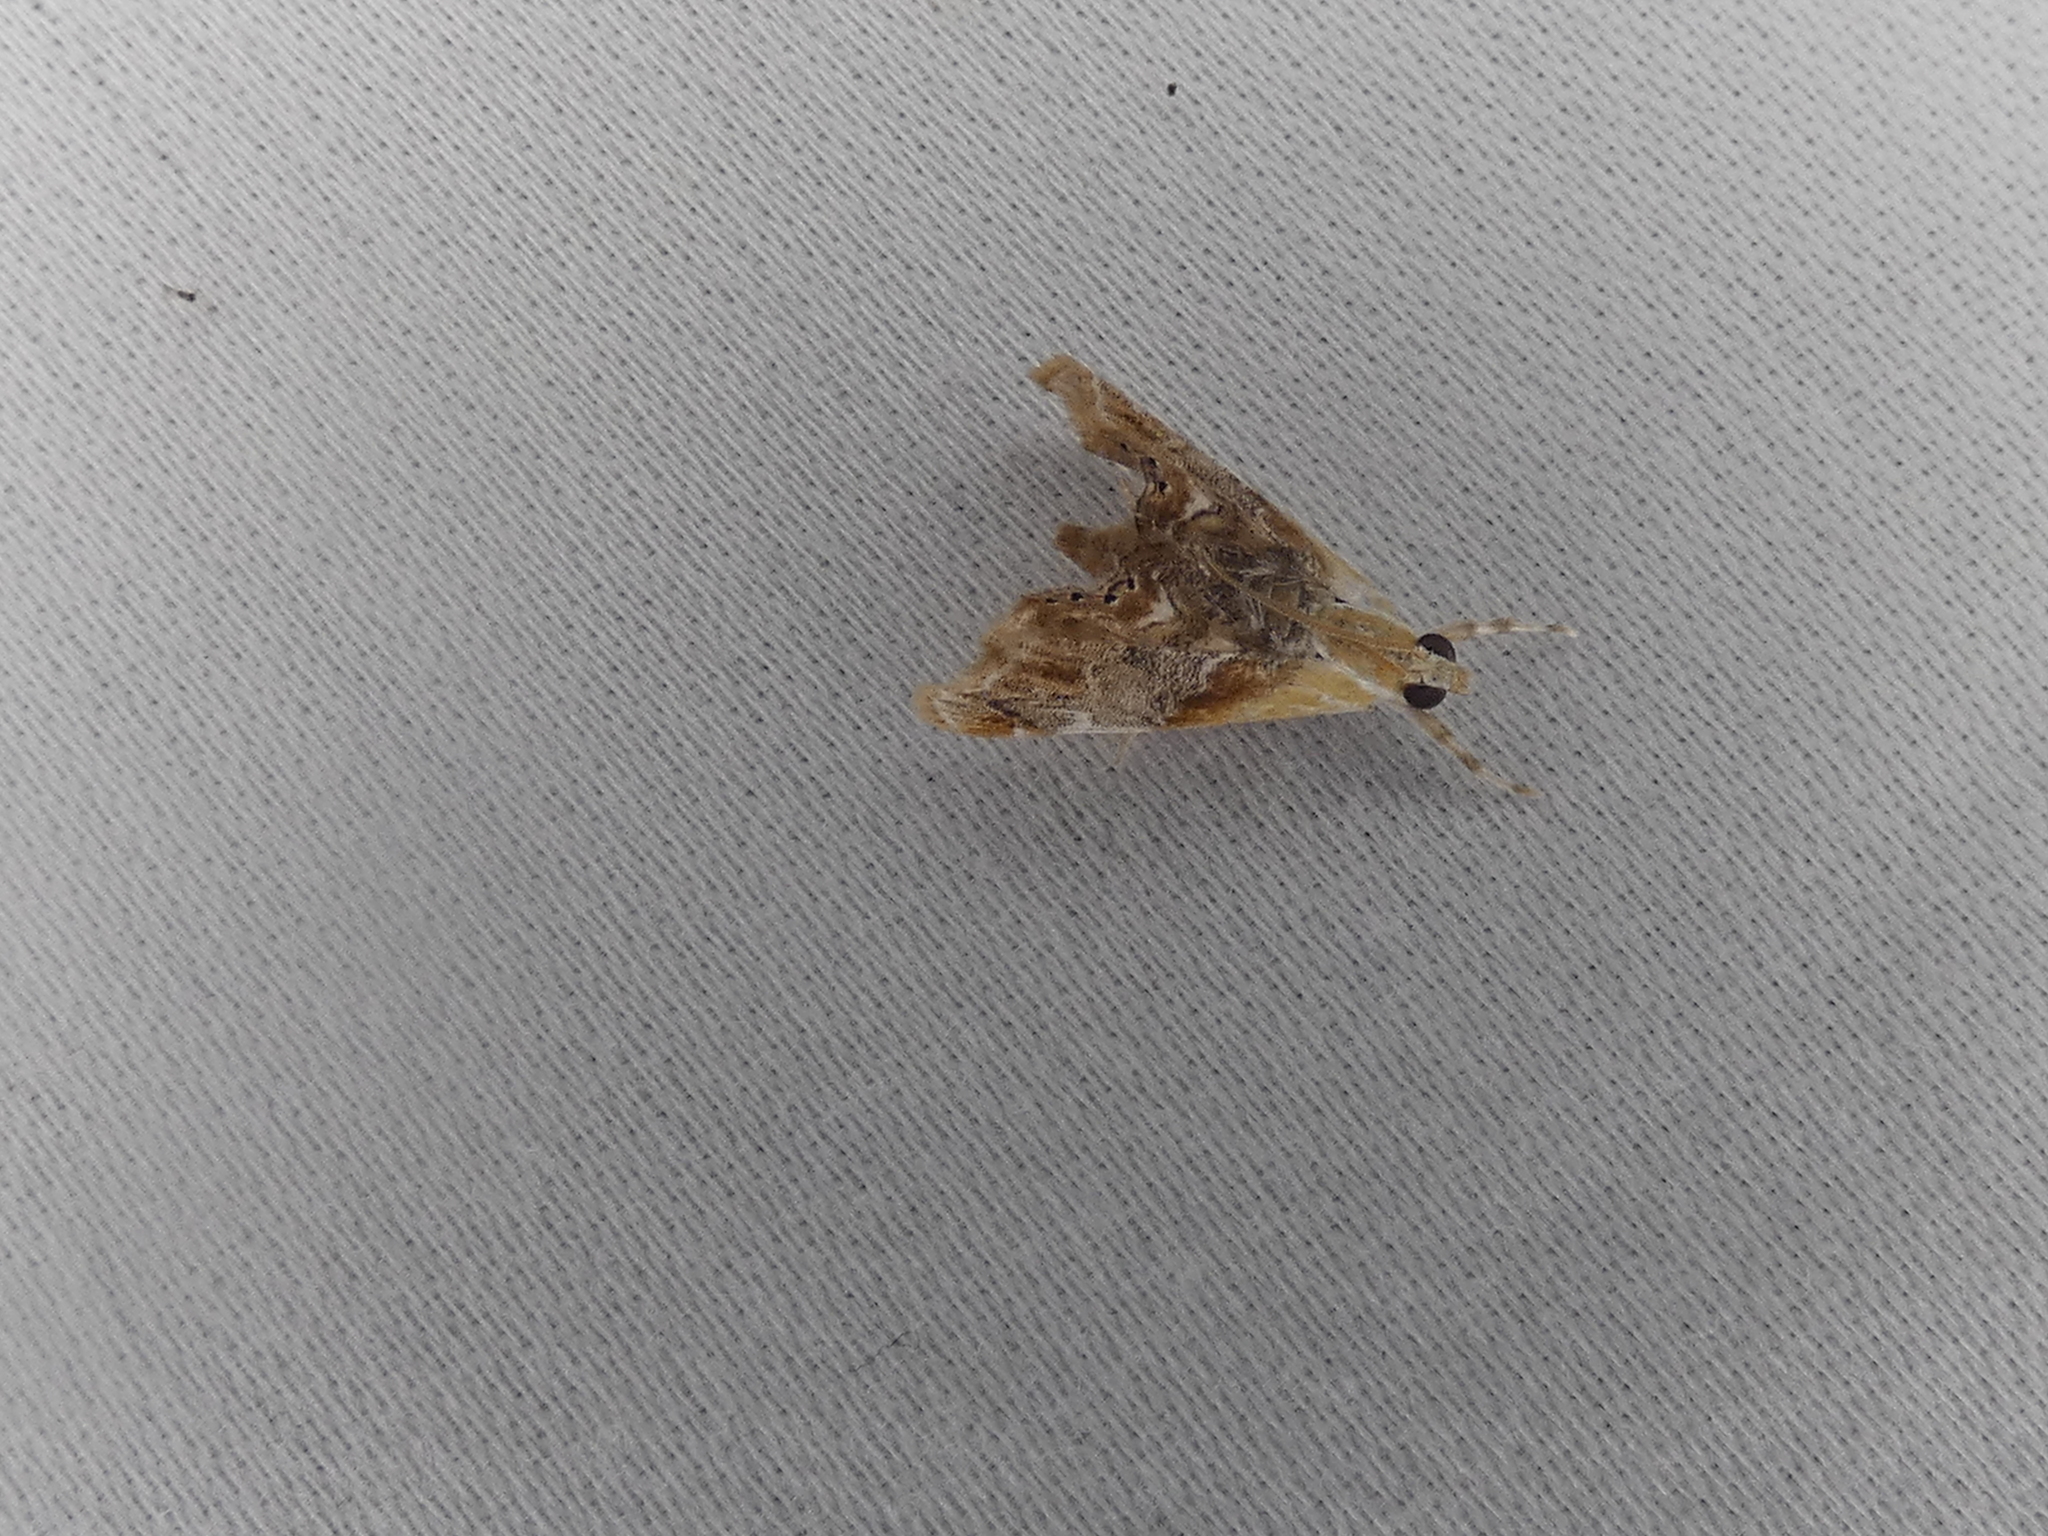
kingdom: Animalia
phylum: Arthropoda
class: Insecta
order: Lepidoptera
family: Crambidae
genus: Dicymolomia
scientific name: Dicymolomia julianalis
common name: Julia's dicymolomia moth
